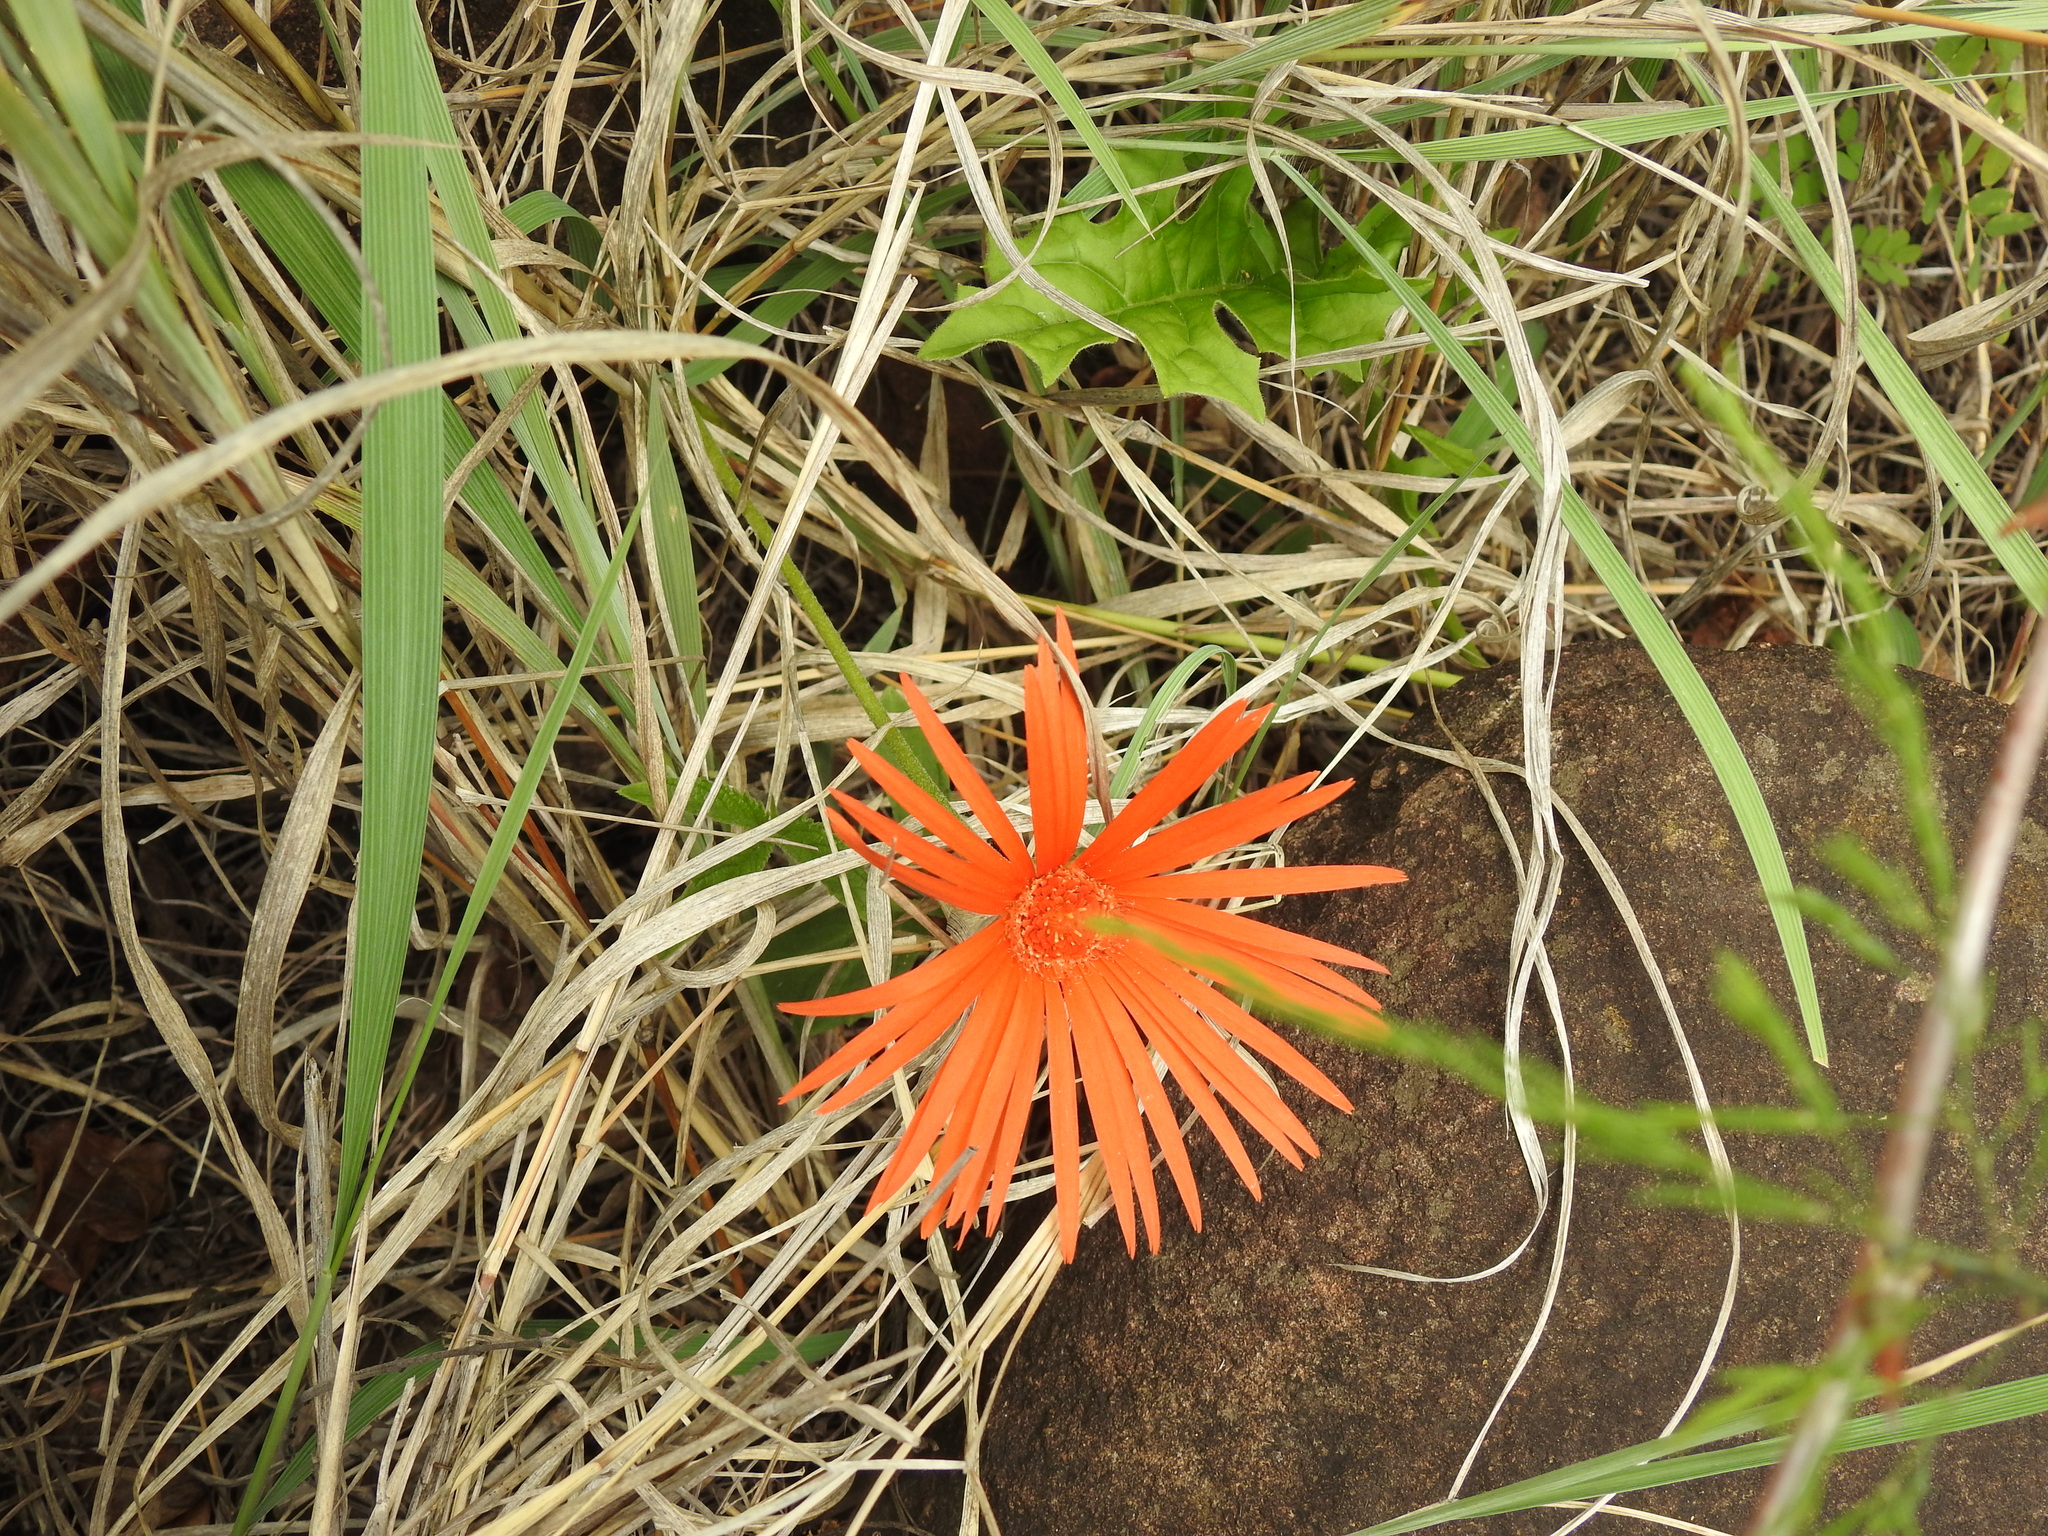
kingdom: Plantae
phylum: Tracheophyta
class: Magnoliopsida
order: Asterales
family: Asteraceae
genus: Gerbera
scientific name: Gerbera jamesonii
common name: African daisy
